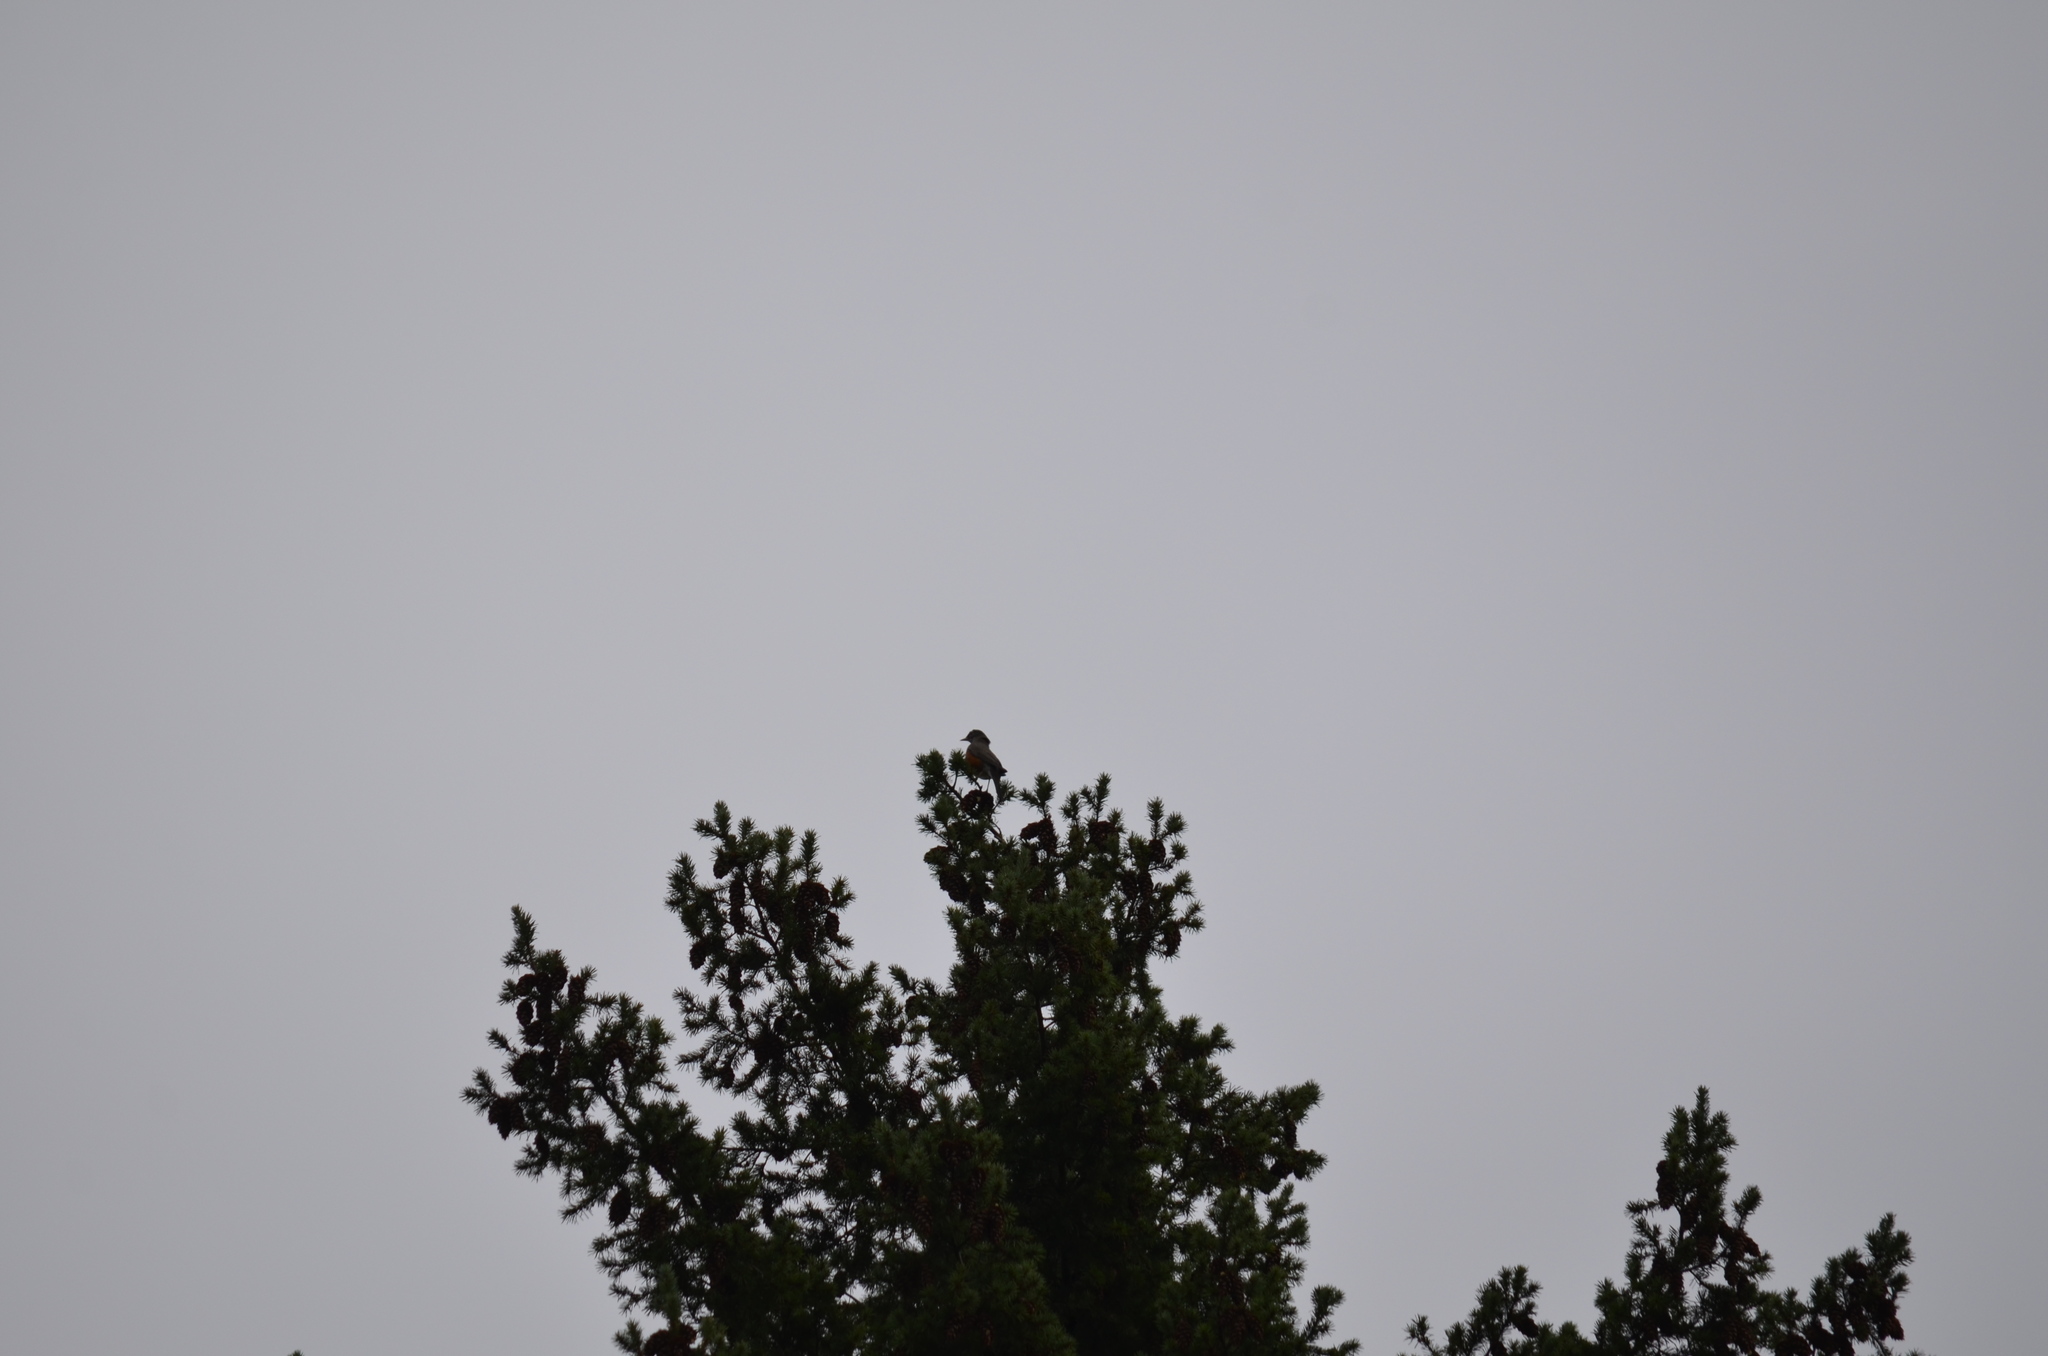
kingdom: Animalia
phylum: Chordata
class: Aves
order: Passeriformes
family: Turdidae
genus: Turdus
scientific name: Turdus migratorius
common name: American robin
